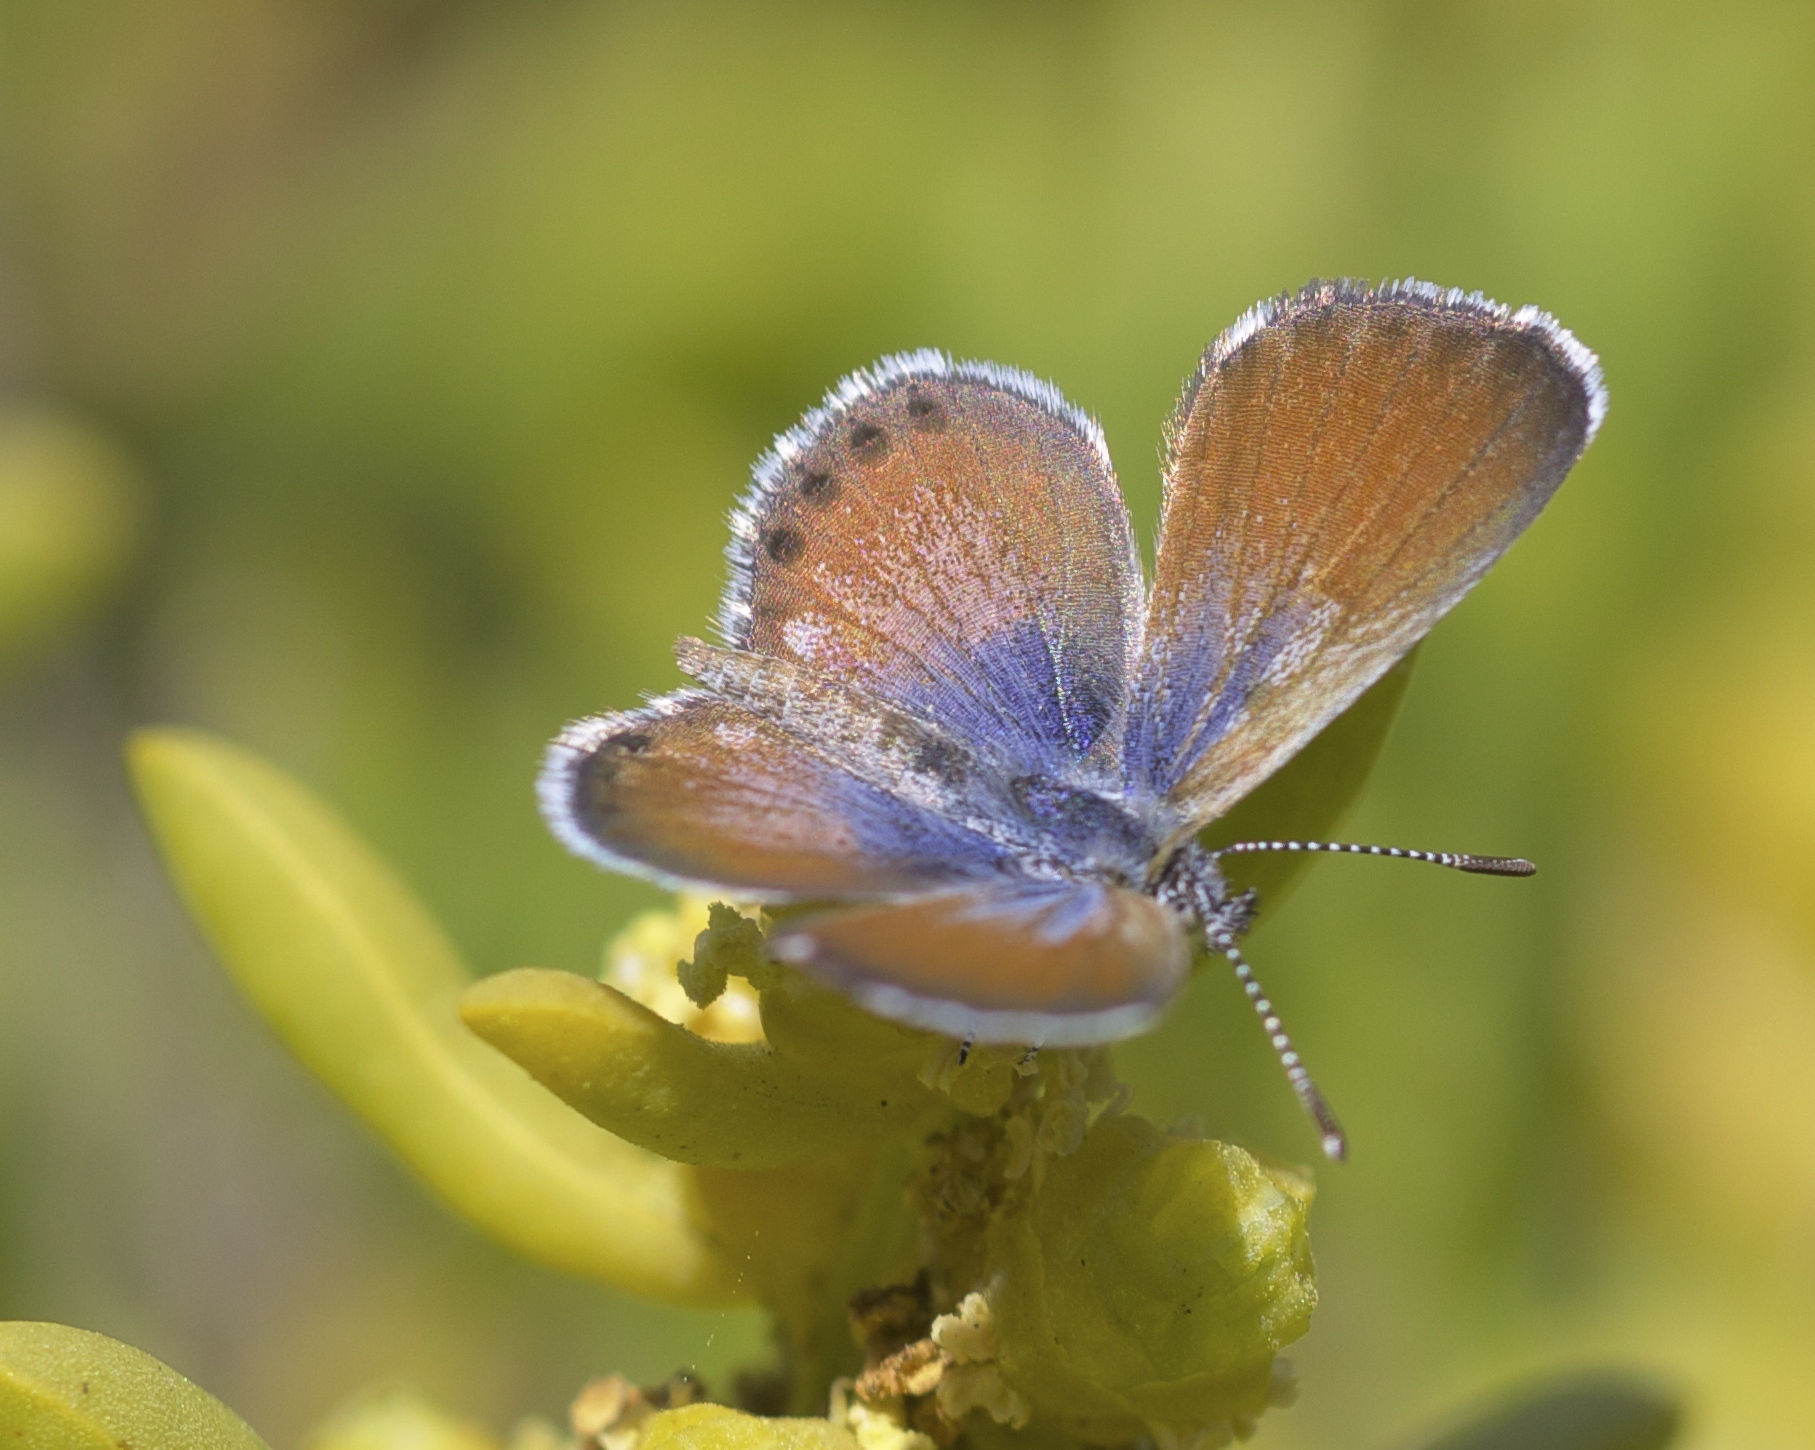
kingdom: Animalia
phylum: Arthropoda
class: Insecta
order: Lepidoptera
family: Lycaenidae
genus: Brephidium
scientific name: Brephidium exilis
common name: Pygmy blue
